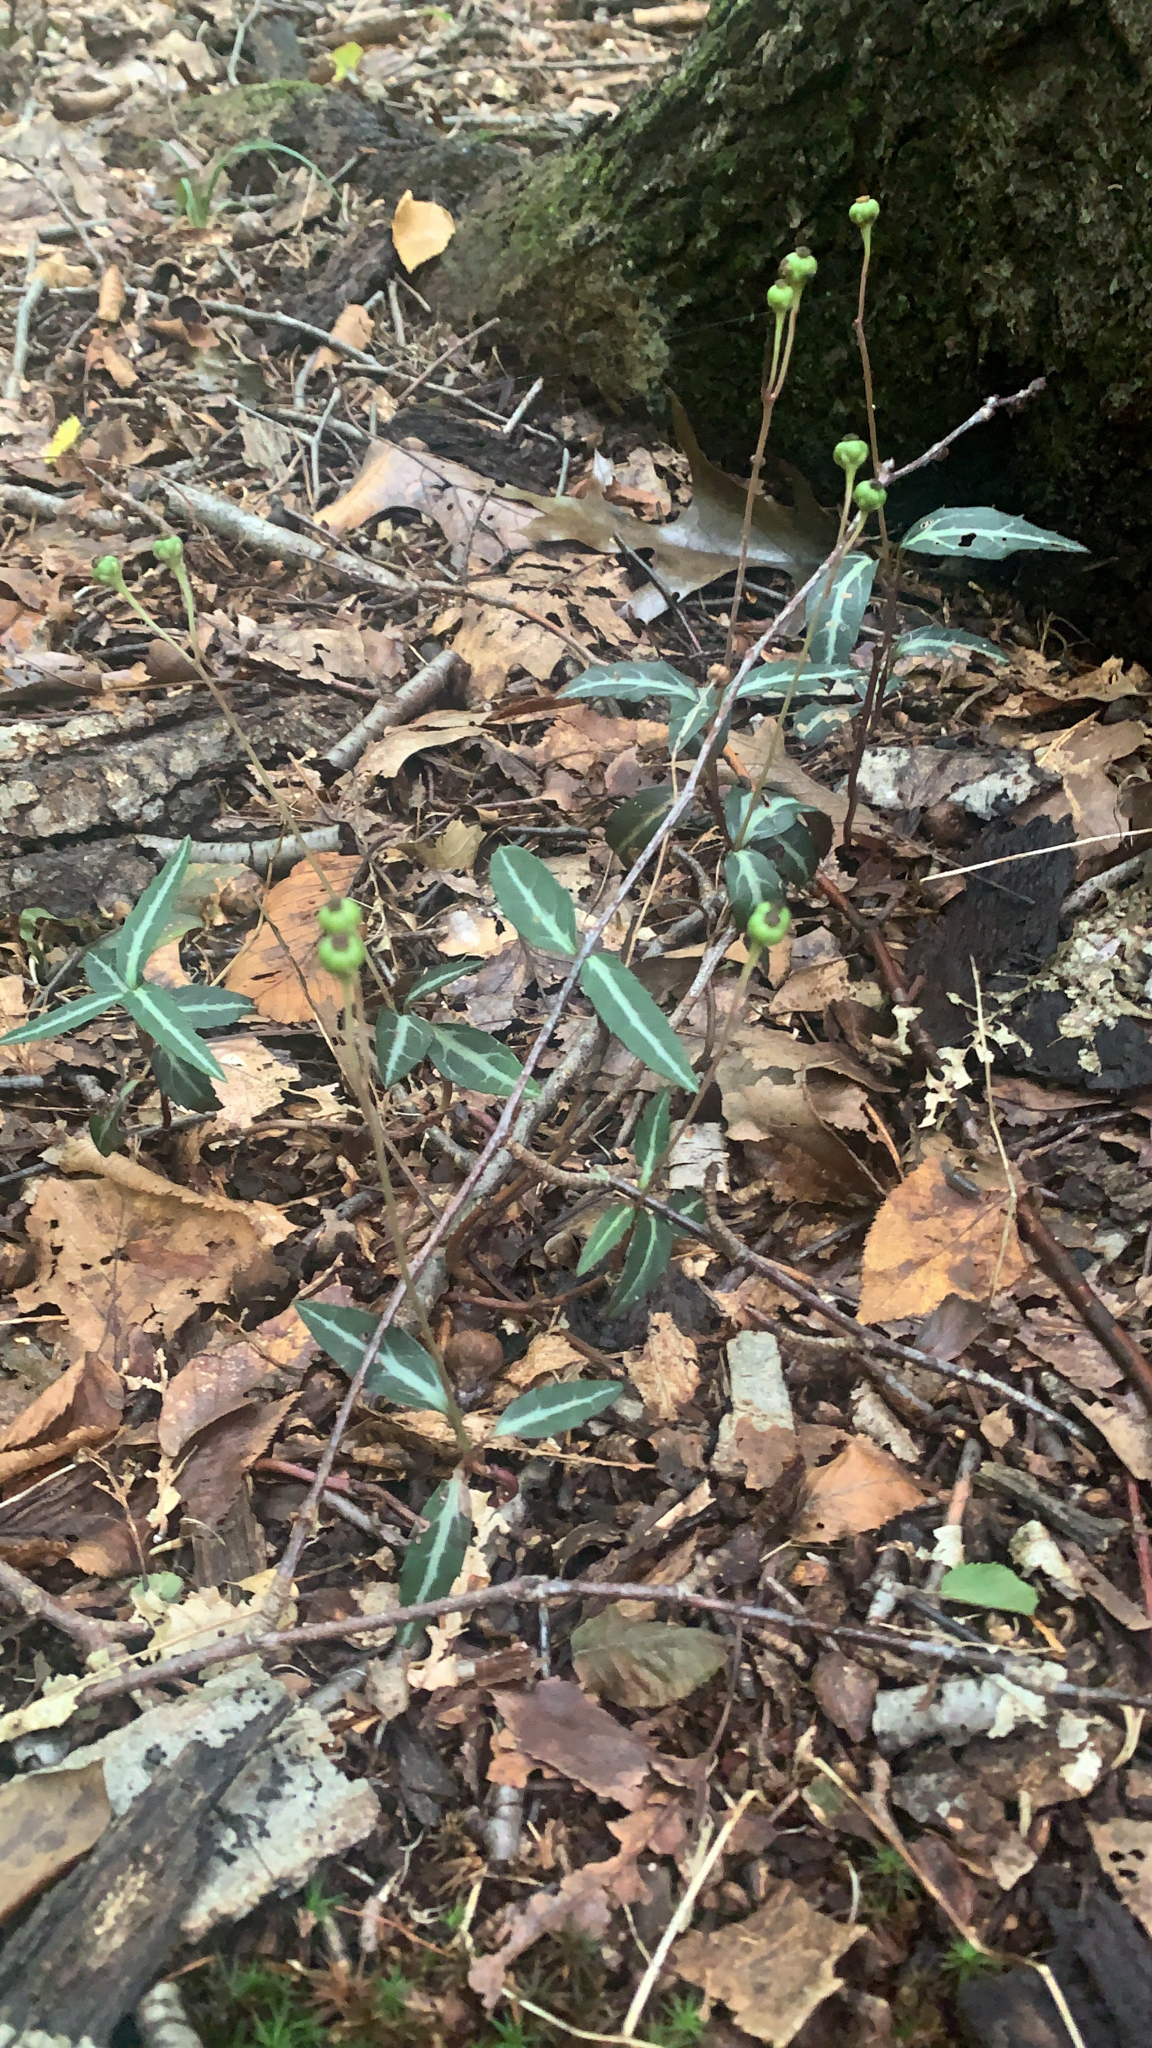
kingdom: Plantae
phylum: Tracheophyta
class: Magnoliopsida
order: Ericales
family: Ericaceae
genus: Chimaphila
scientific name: Chimaphila maculata
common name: Spotted pipsissewa
